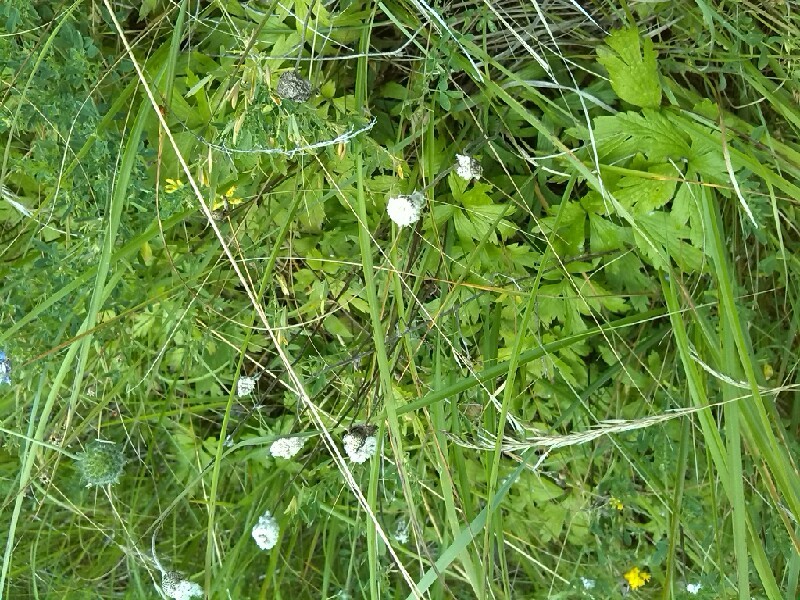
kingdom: Plantae
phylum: Tracheophyta
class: Magnoliopsida
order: Ranunculales
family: Ranunculaceae
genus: Anemone
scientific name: Anemone sylvestris
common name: Snowdrop anemone
